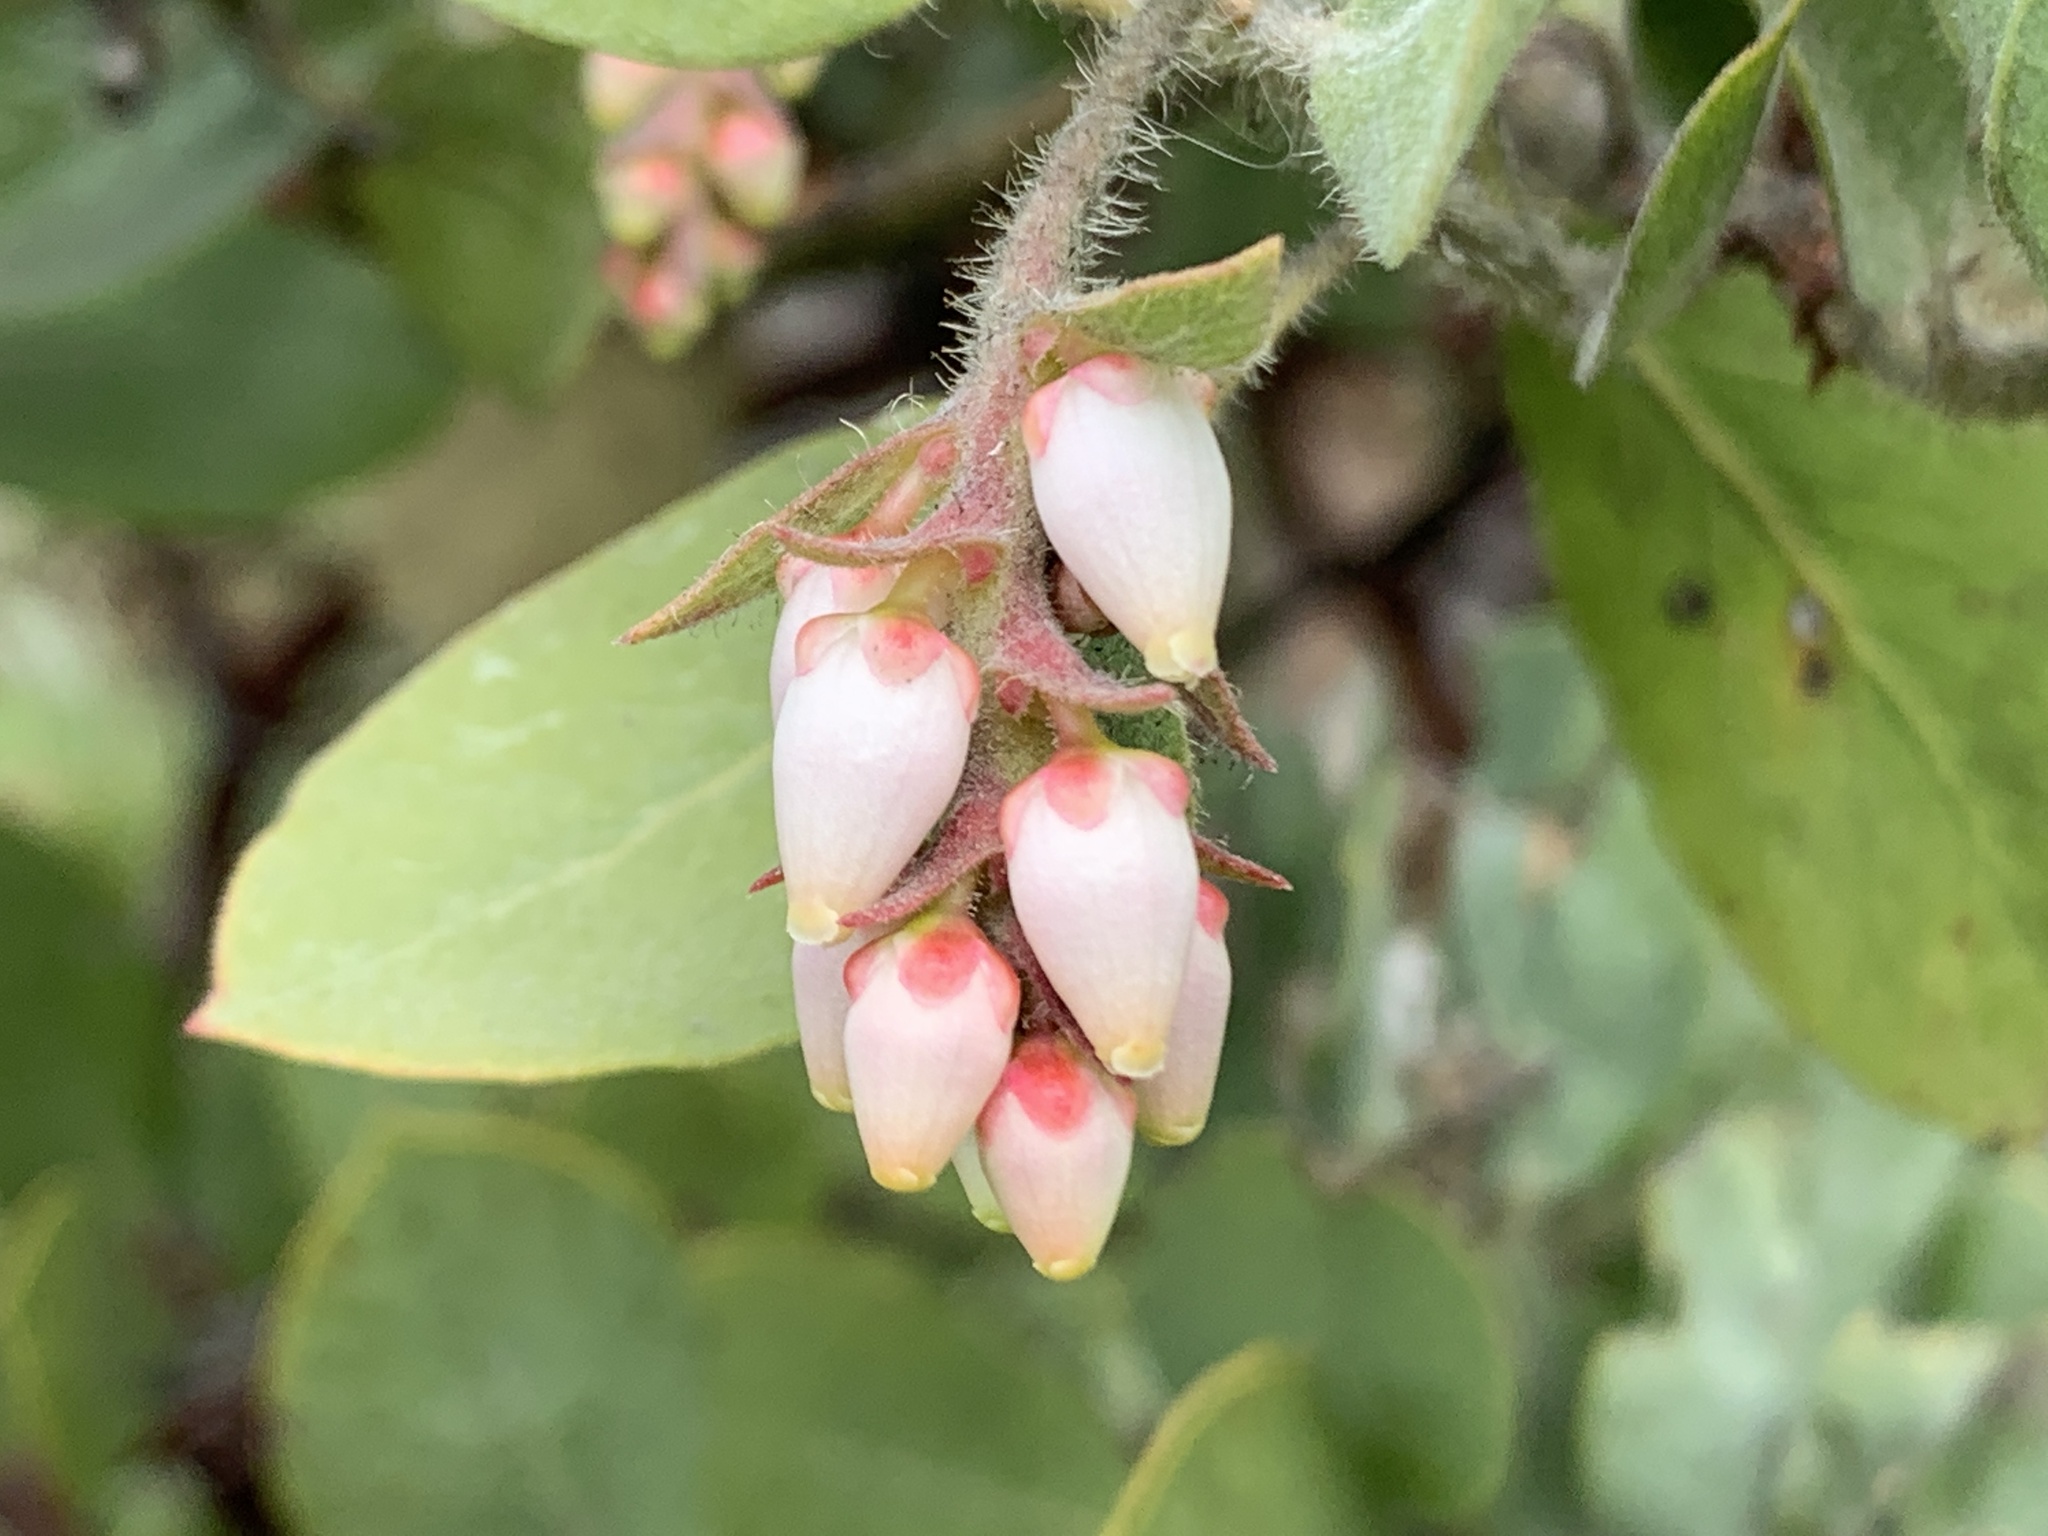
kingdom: Plantae
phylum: Tracheophyta
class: Magnoliopsida
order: Ericales
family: Ericaceae
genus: Arctostaphylos
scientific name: Arctostaphylos columbiana
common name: Bristly bearberry
